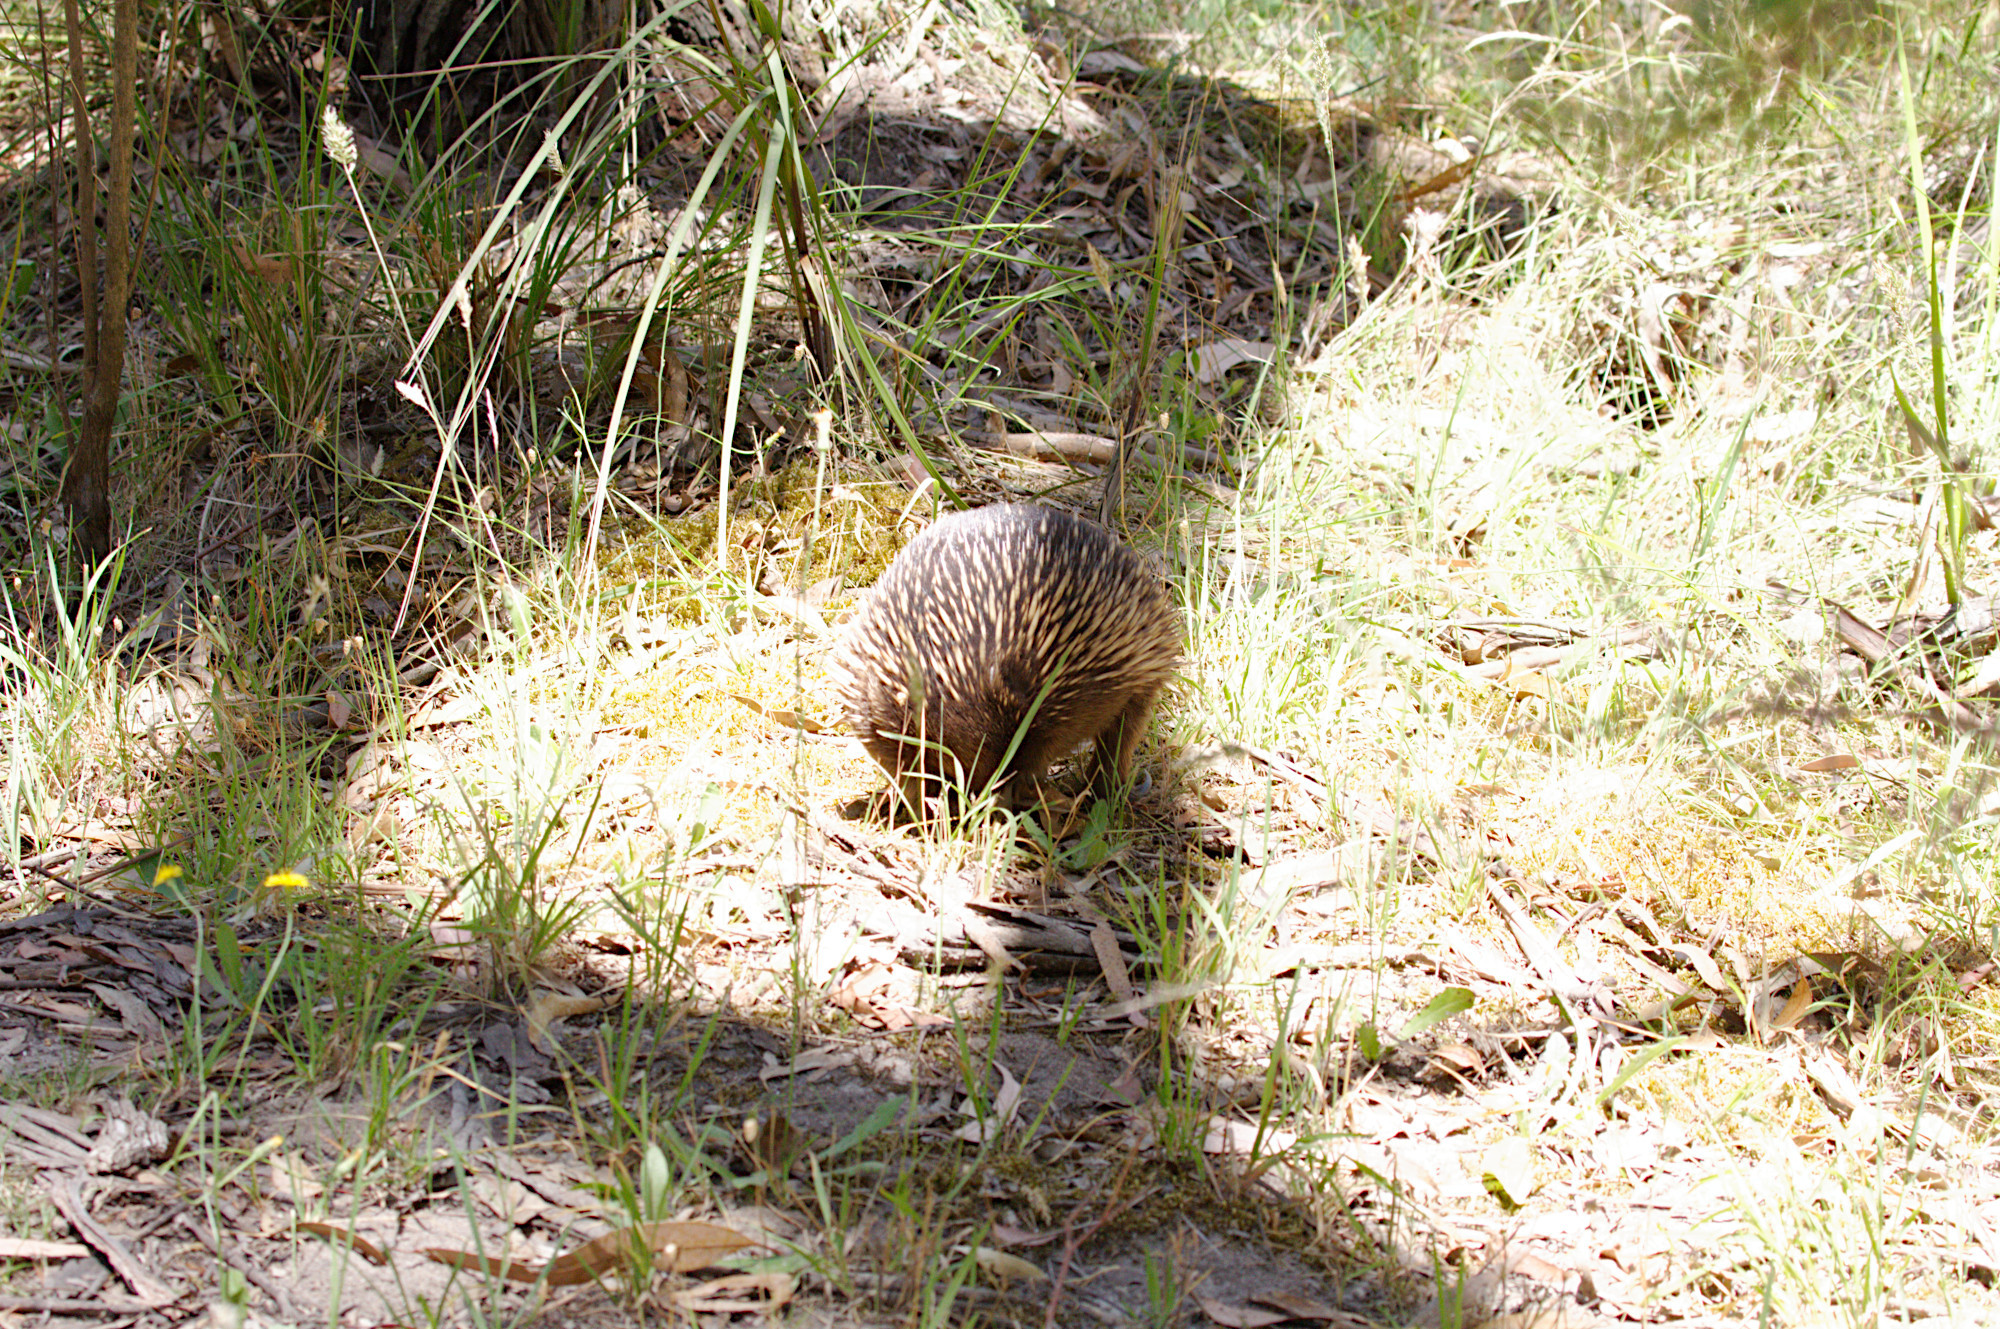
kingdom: Animalia
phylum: Chordata
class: Mammalia
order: Monotremata
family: Tachyglossidae
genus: Tachyglossus
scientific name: Tachyglossus aculeatus
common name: Short-beaked echidna
